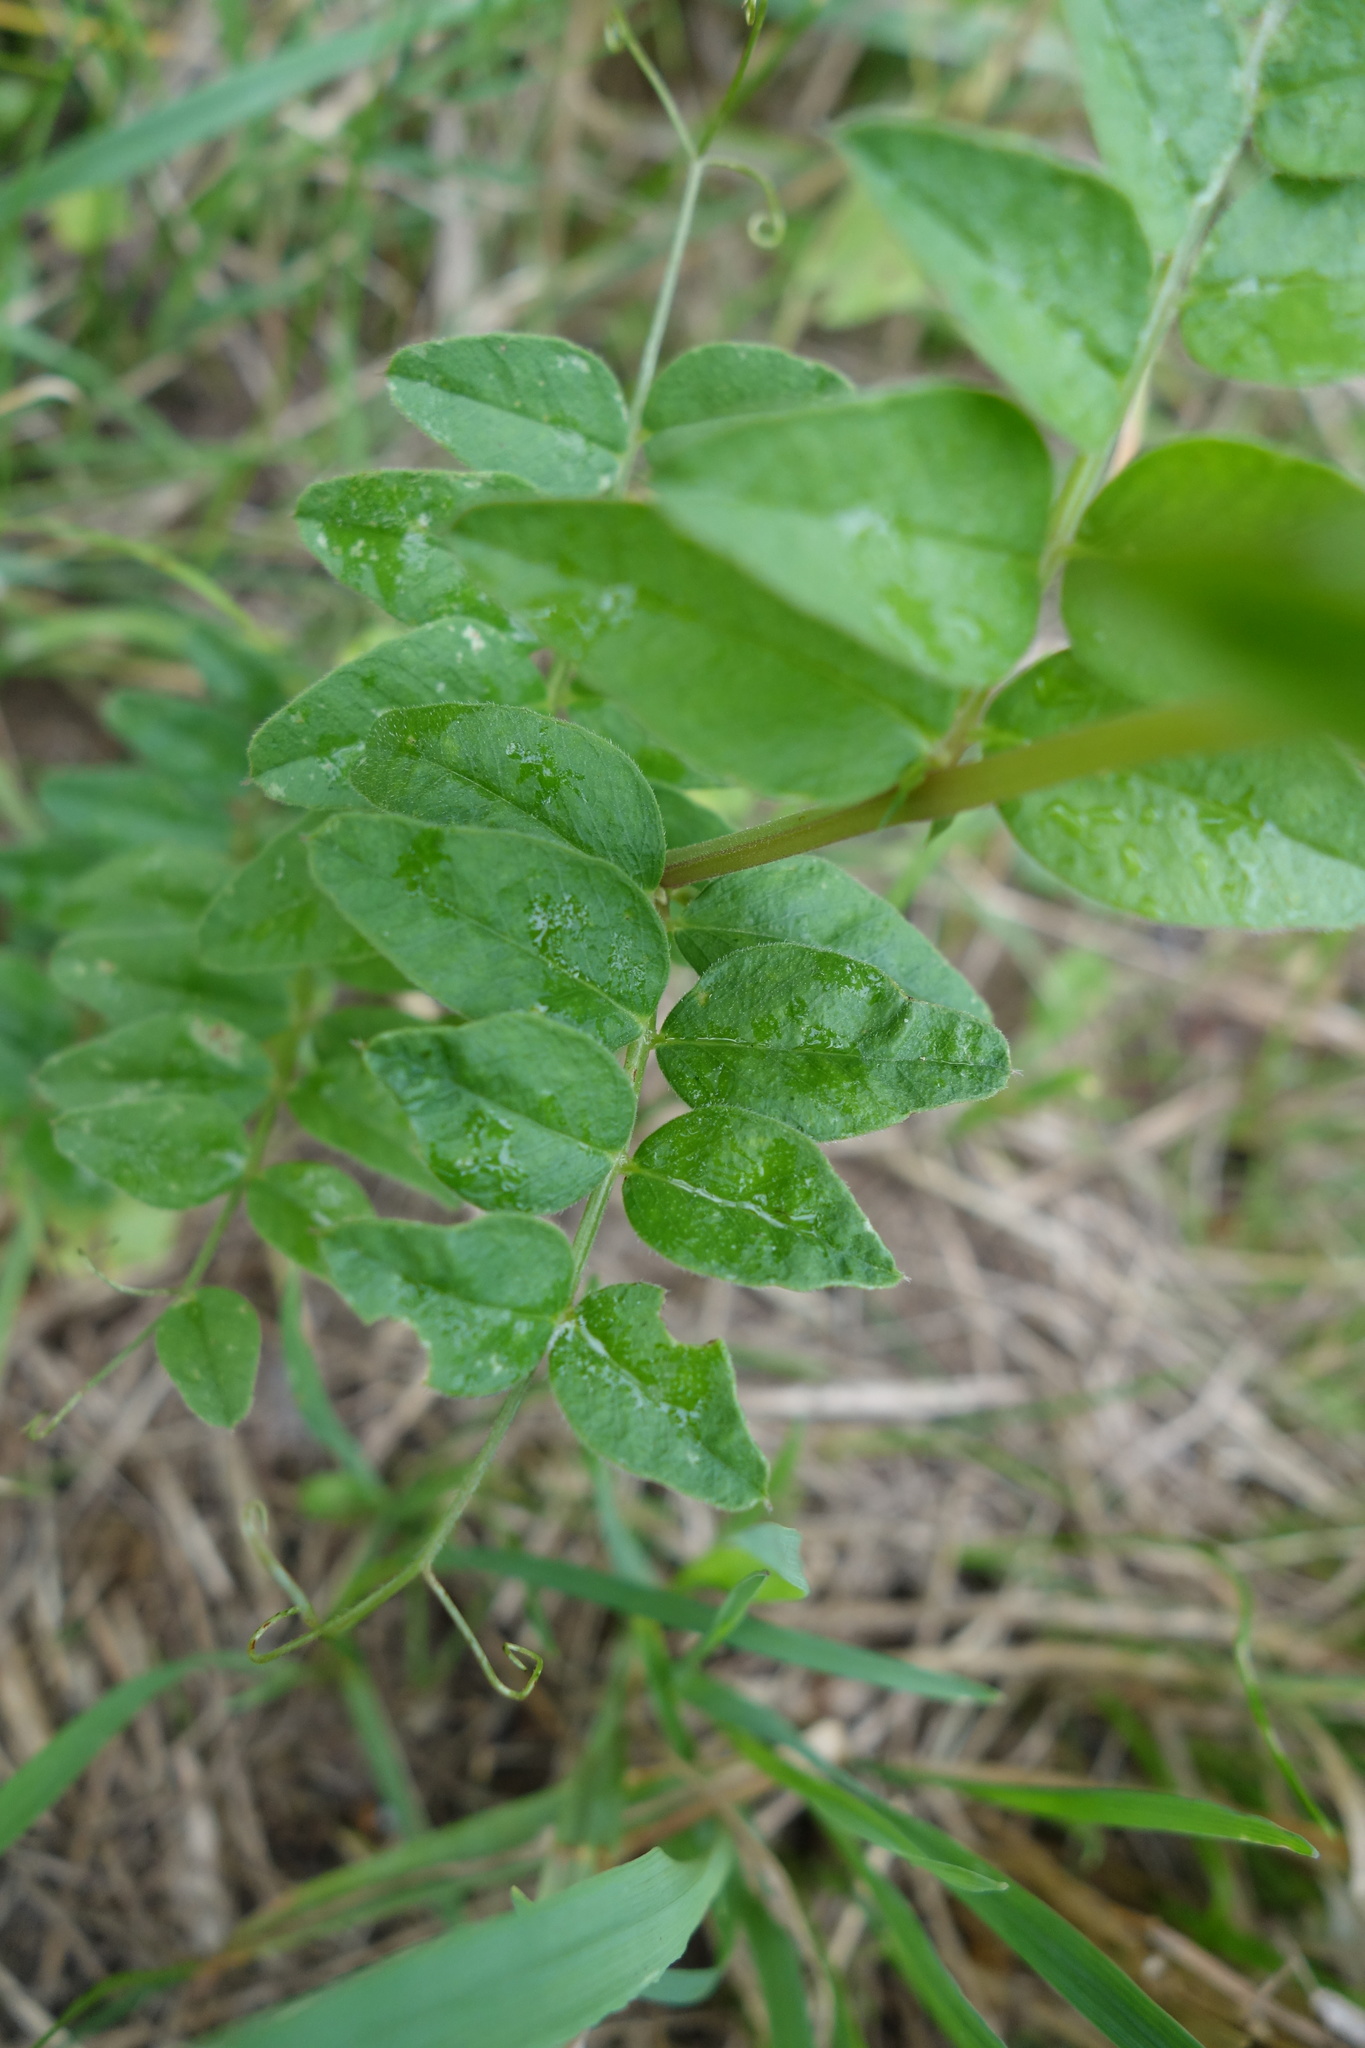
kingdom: Plantae
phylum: Tracheophyta
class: Magnoliopsida
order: Fabales
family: Fabaceae
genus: Vicia
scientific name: Vicia sepium
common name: Bush vetch
